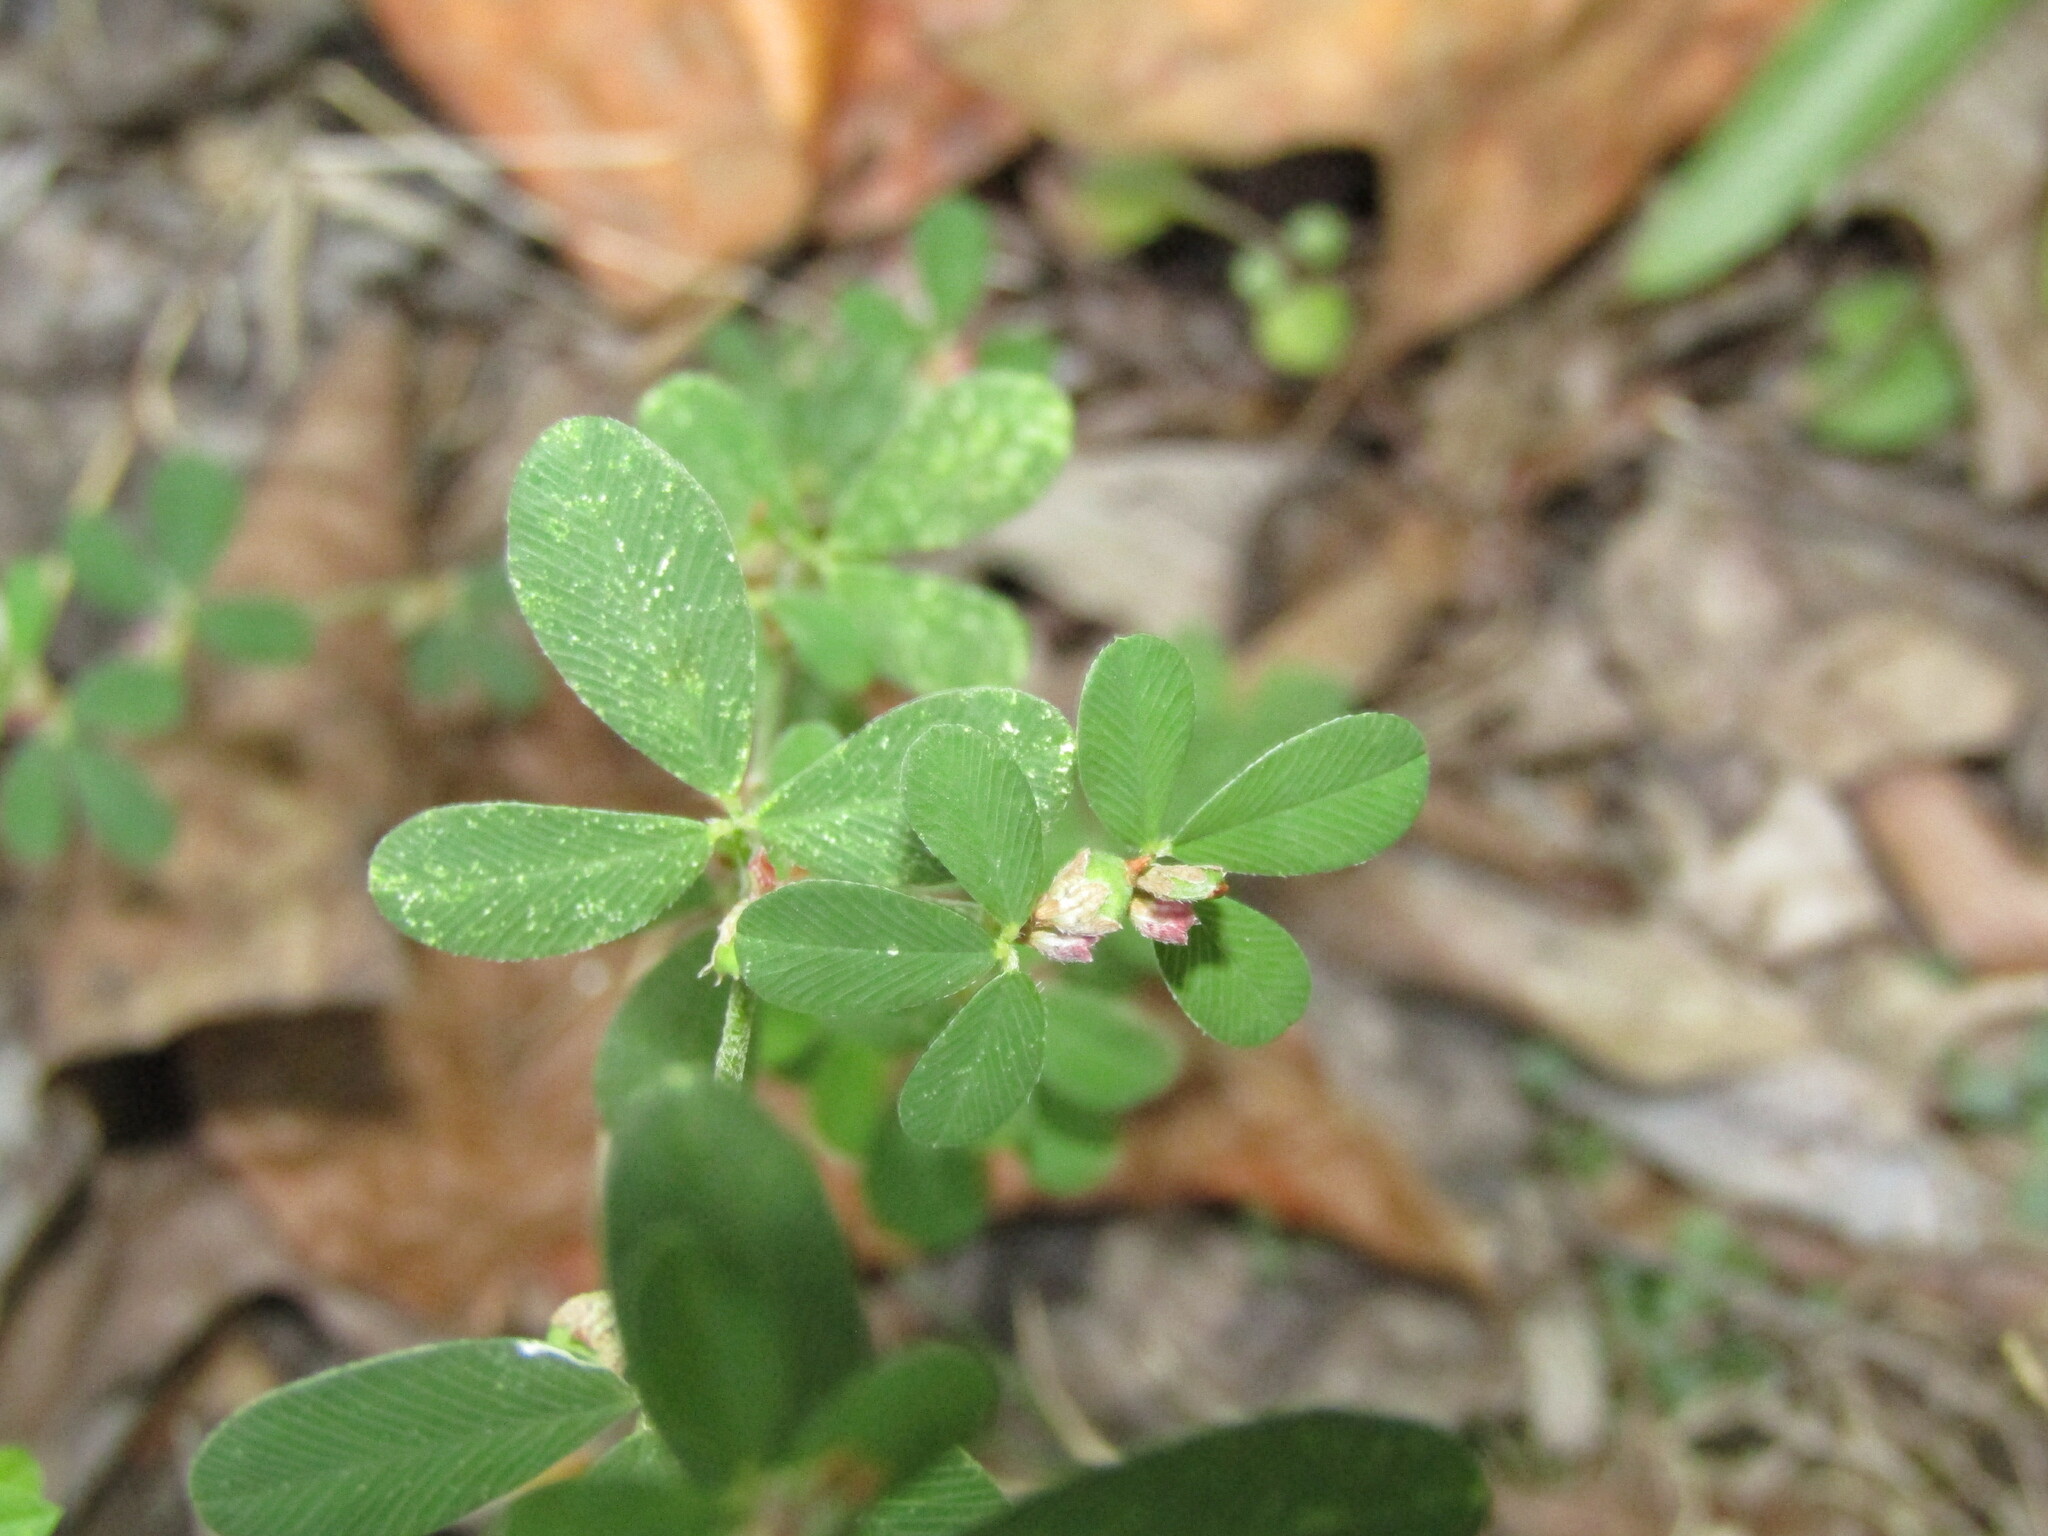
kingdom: Plantae
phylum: Tracheophyta
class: Magnoliopsida
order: Fabales
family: Fabaceae
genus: Kummerowia
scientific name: Kummerowia striata
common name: Japanese clover
